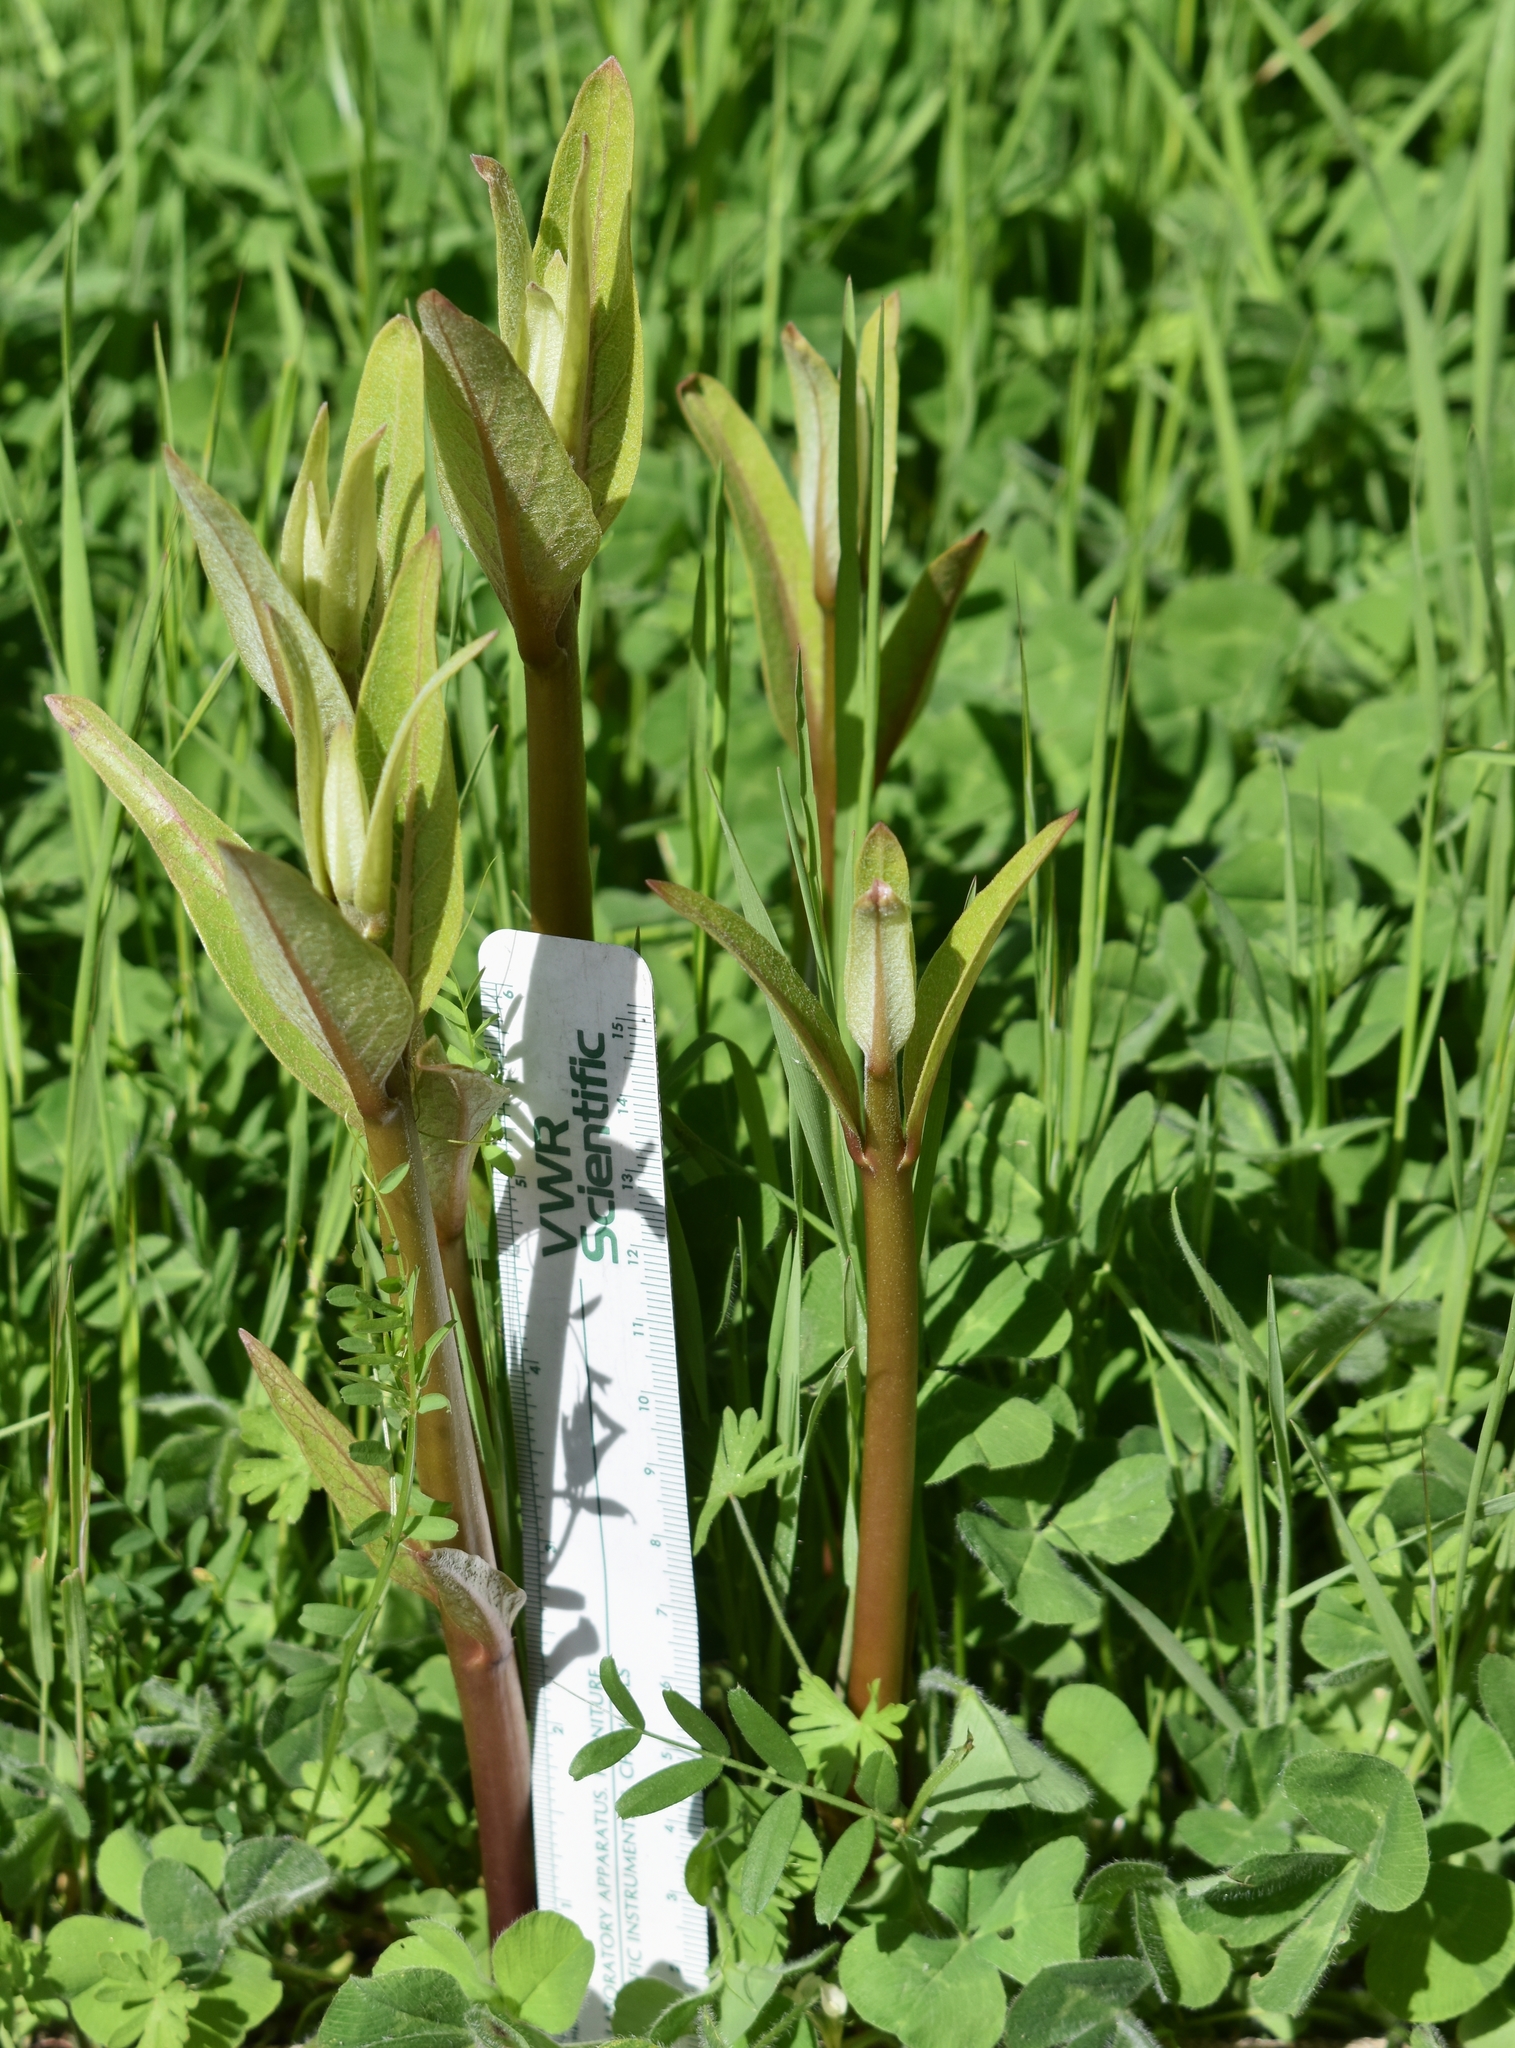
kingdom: Plantae
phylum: Tracheophyta
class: Magnoliopsida
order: Gentianales
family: Apocynaceae
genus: Asclepias
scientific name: Asclepias speciosa
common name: Showy milkweed
